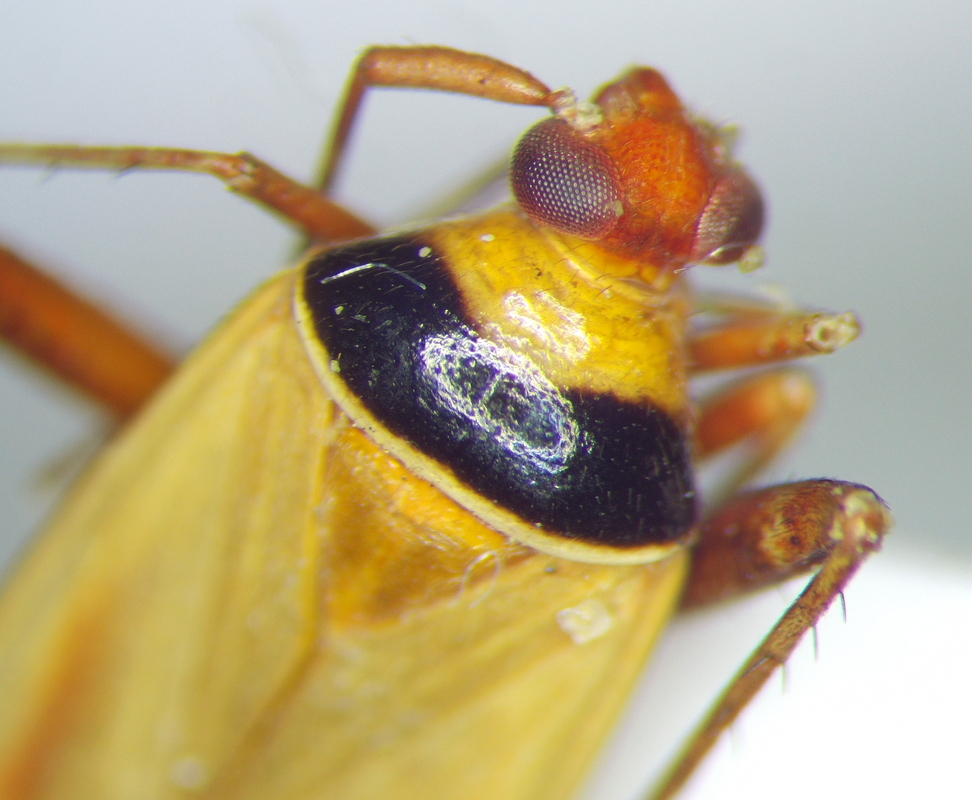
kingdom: Animalia
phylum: Arthropoda
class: Insecta
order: Hemiptera
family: Miridae
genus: Adelphocoris
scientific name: Adelphocoris vandalicus
